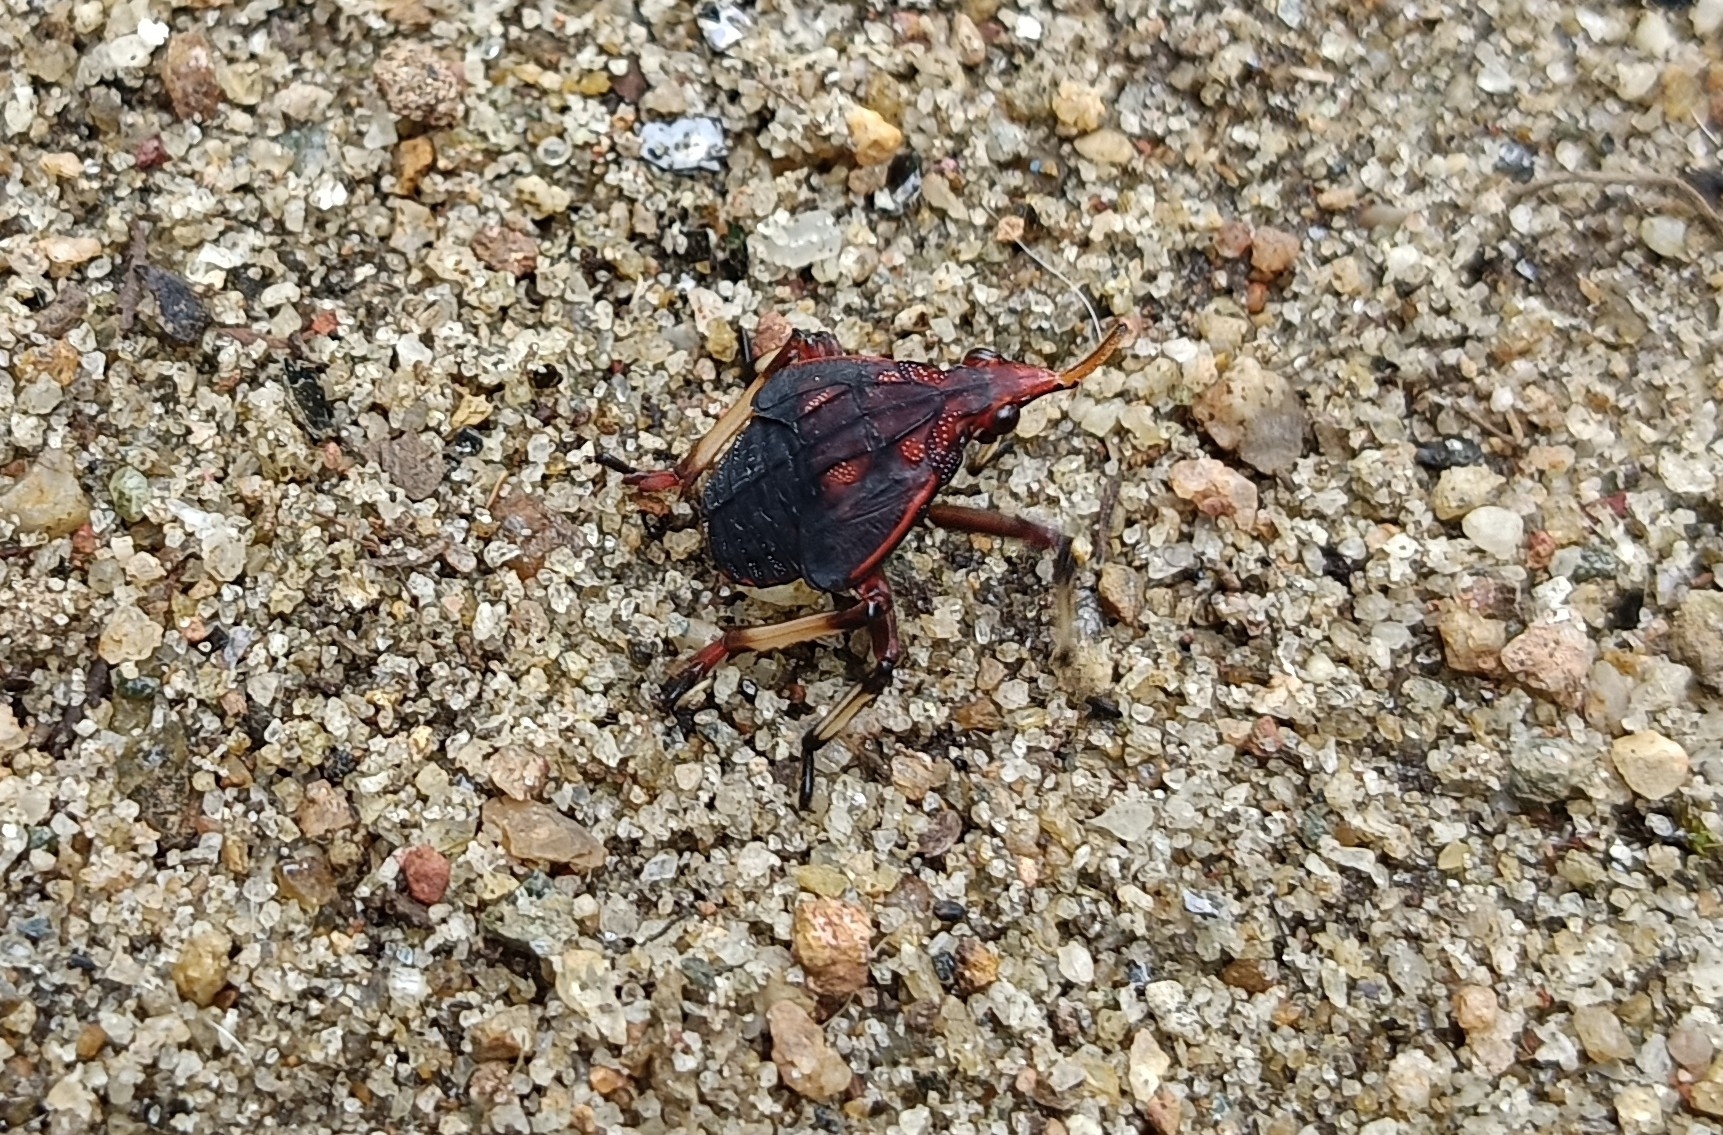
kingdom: Animalia
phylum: Arthropoda
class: Insecta
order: Hemiptera
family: Fulgoridae
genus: Kalidasa
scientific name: Kalidasa lanata
